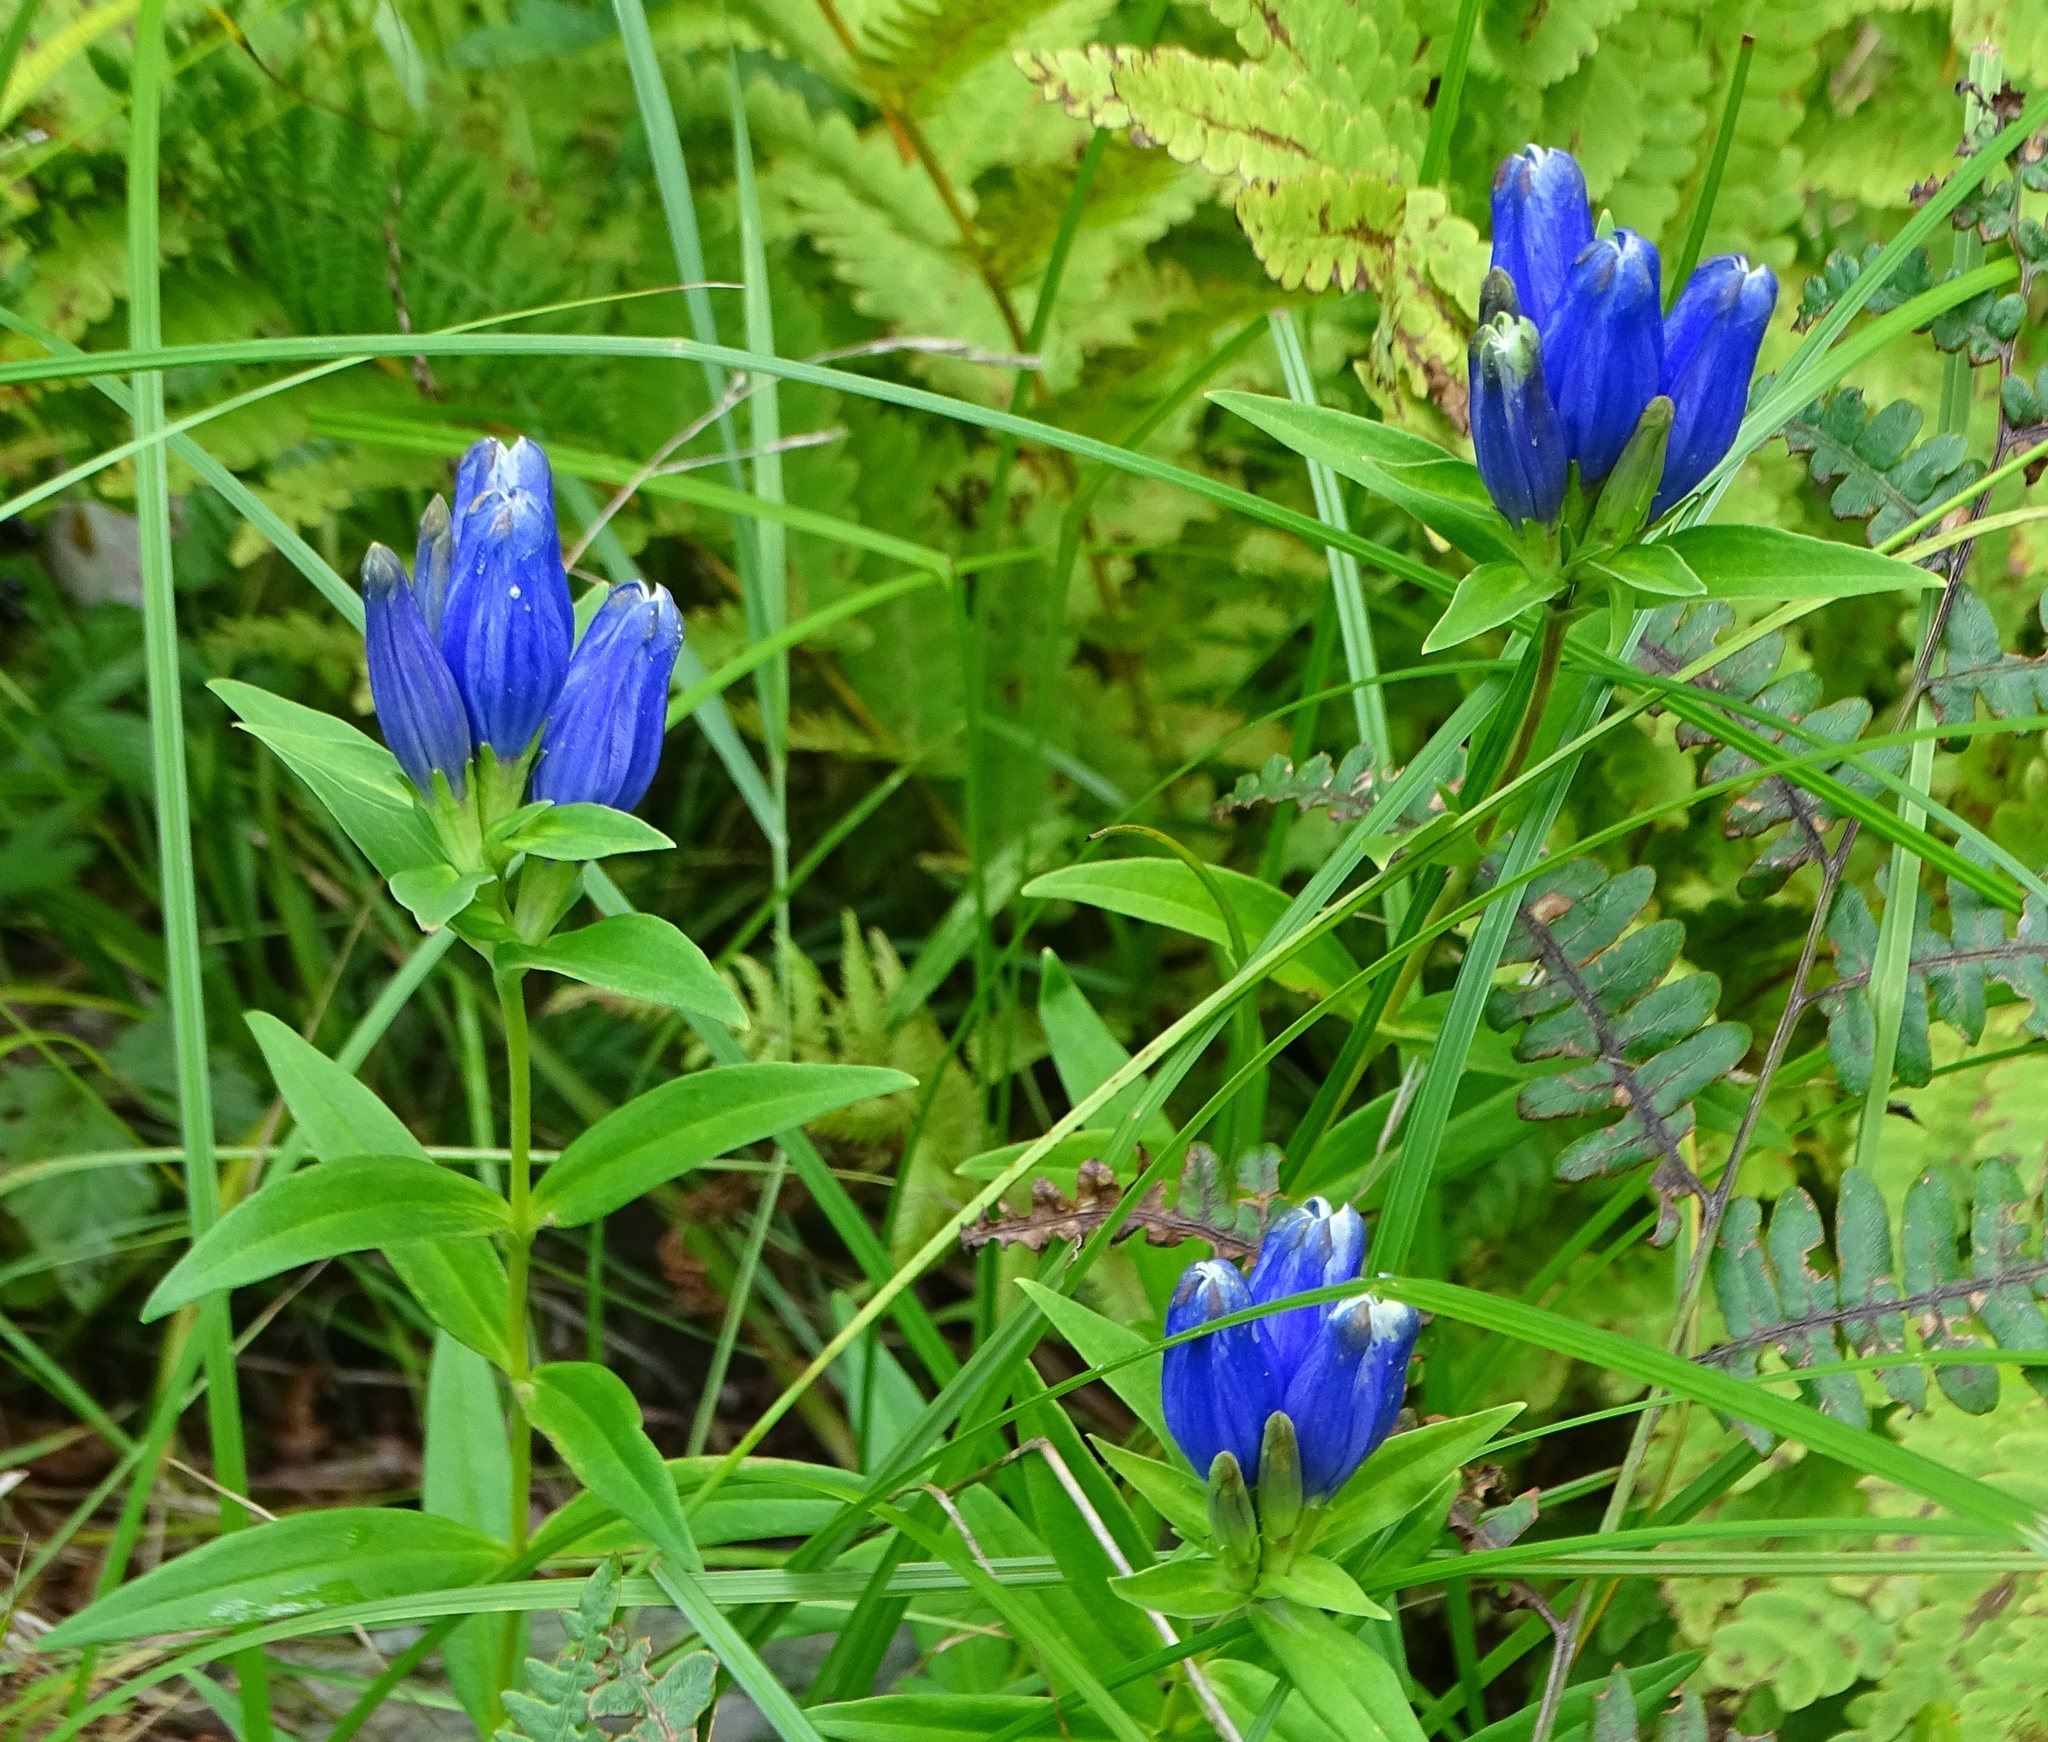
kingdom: Plantae
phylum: Tracheophyta
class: Magnoliopsida
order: Gentianales
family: Gentianaceae
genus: Gentiana
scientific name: Gentiana clausa
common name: Blind gentian
